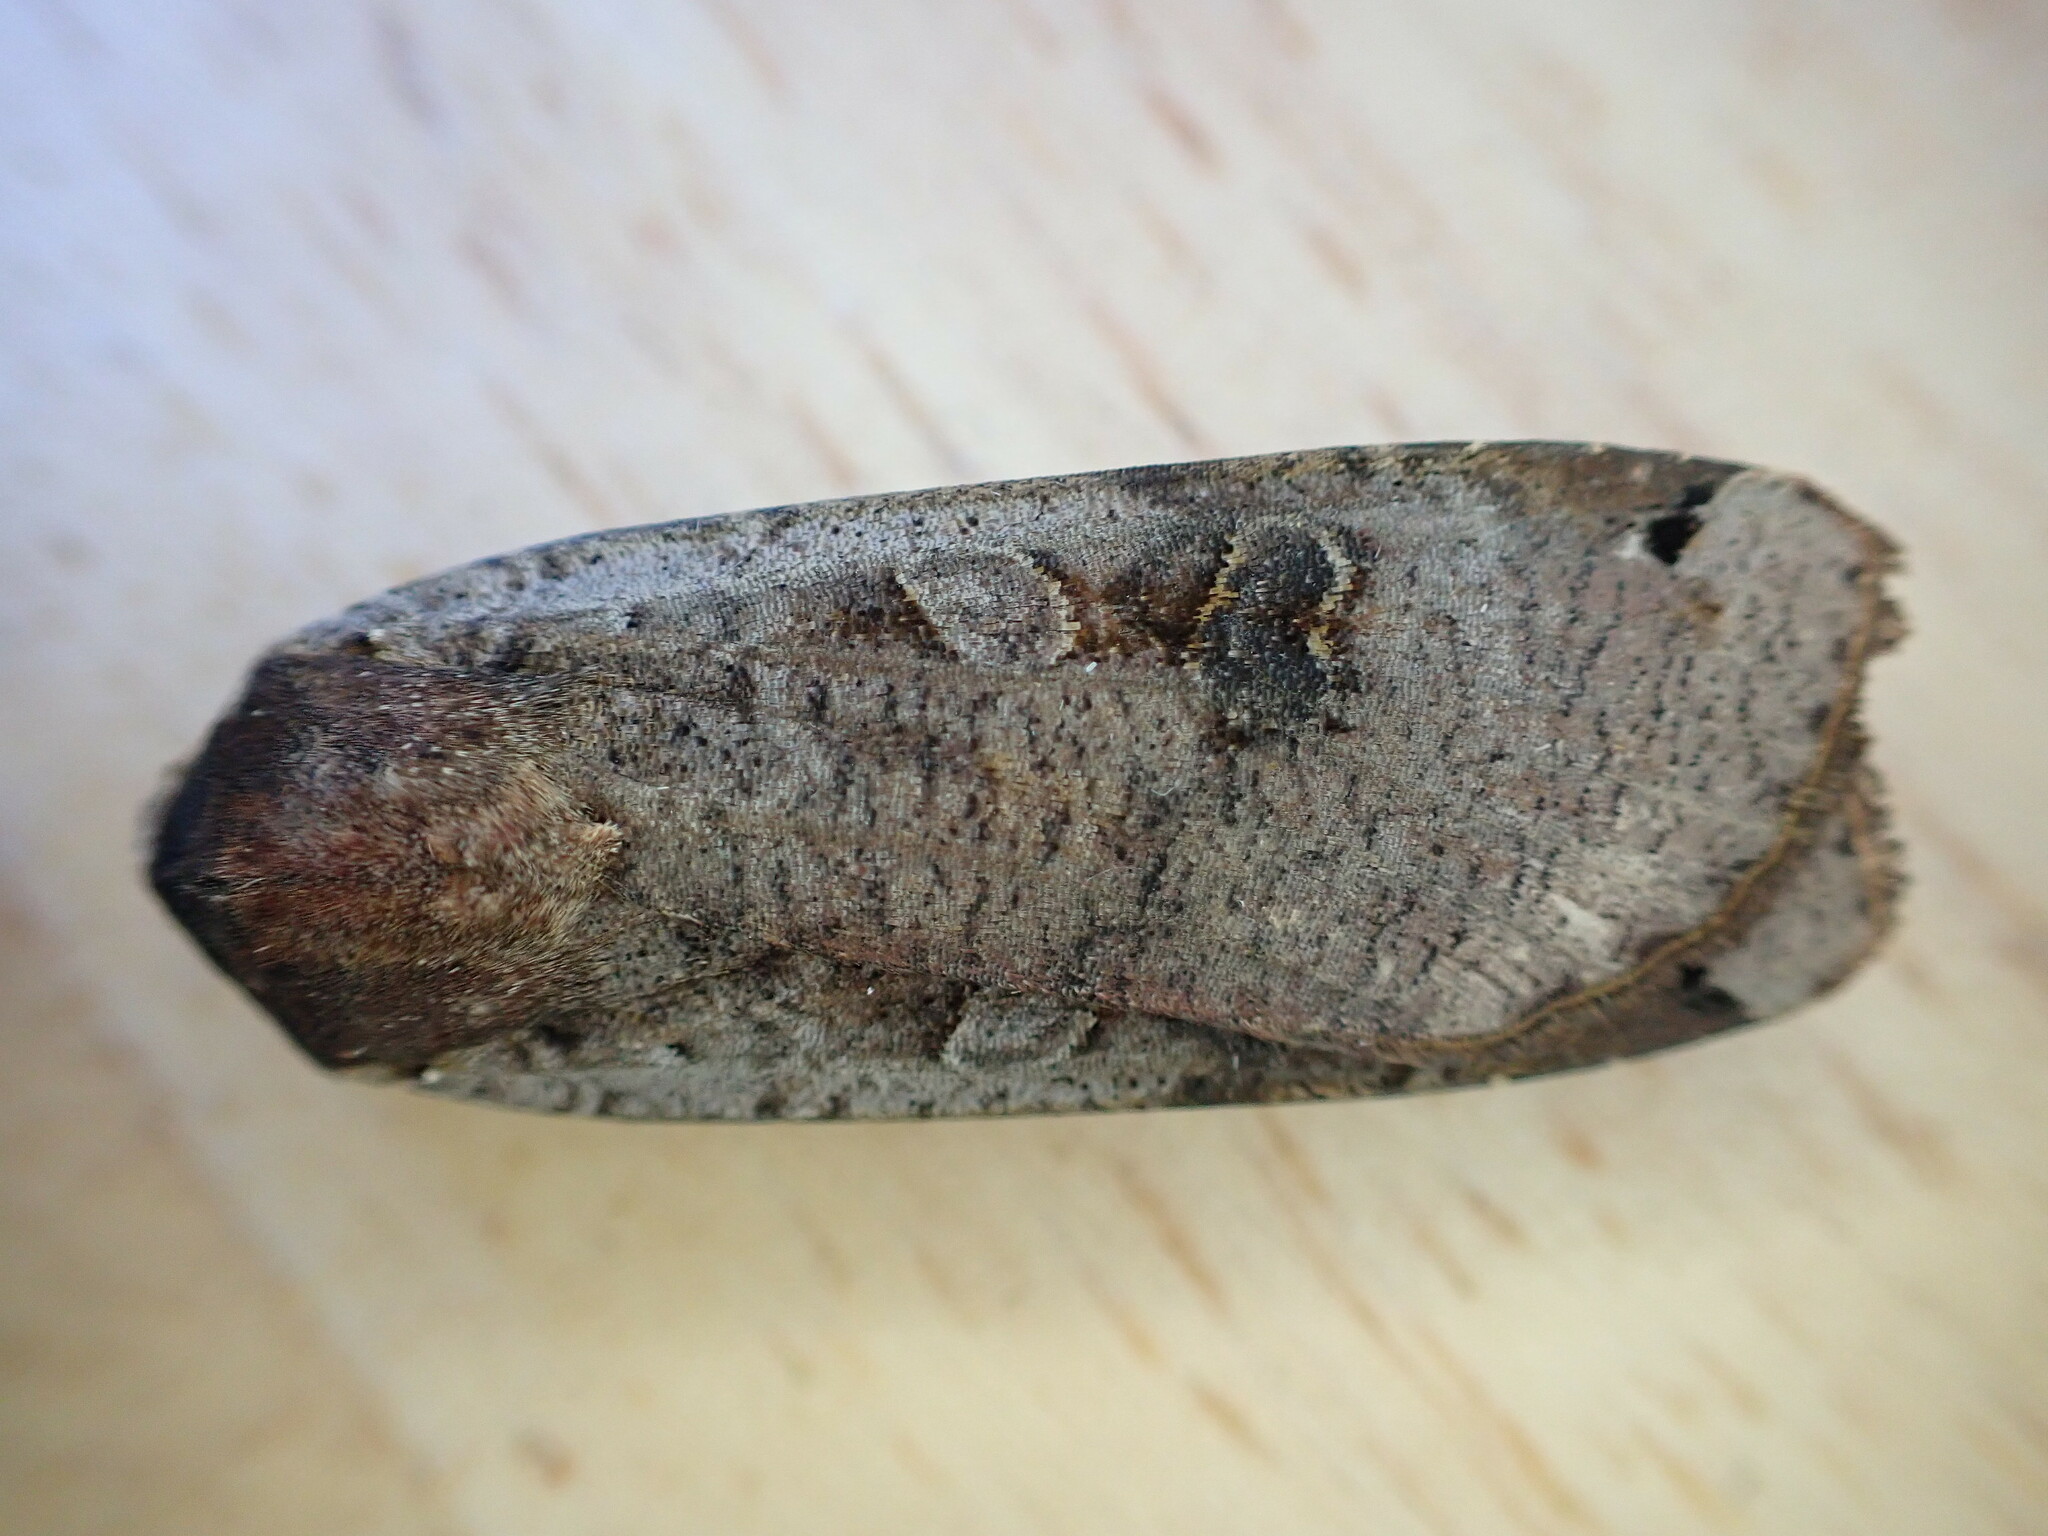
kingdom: Animalia
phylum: Arthropoda
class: Insecta
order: Lepidoptera
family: Noctuidae
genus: Noctua
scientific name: Noctua pronuba
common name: Large yellow underwing
